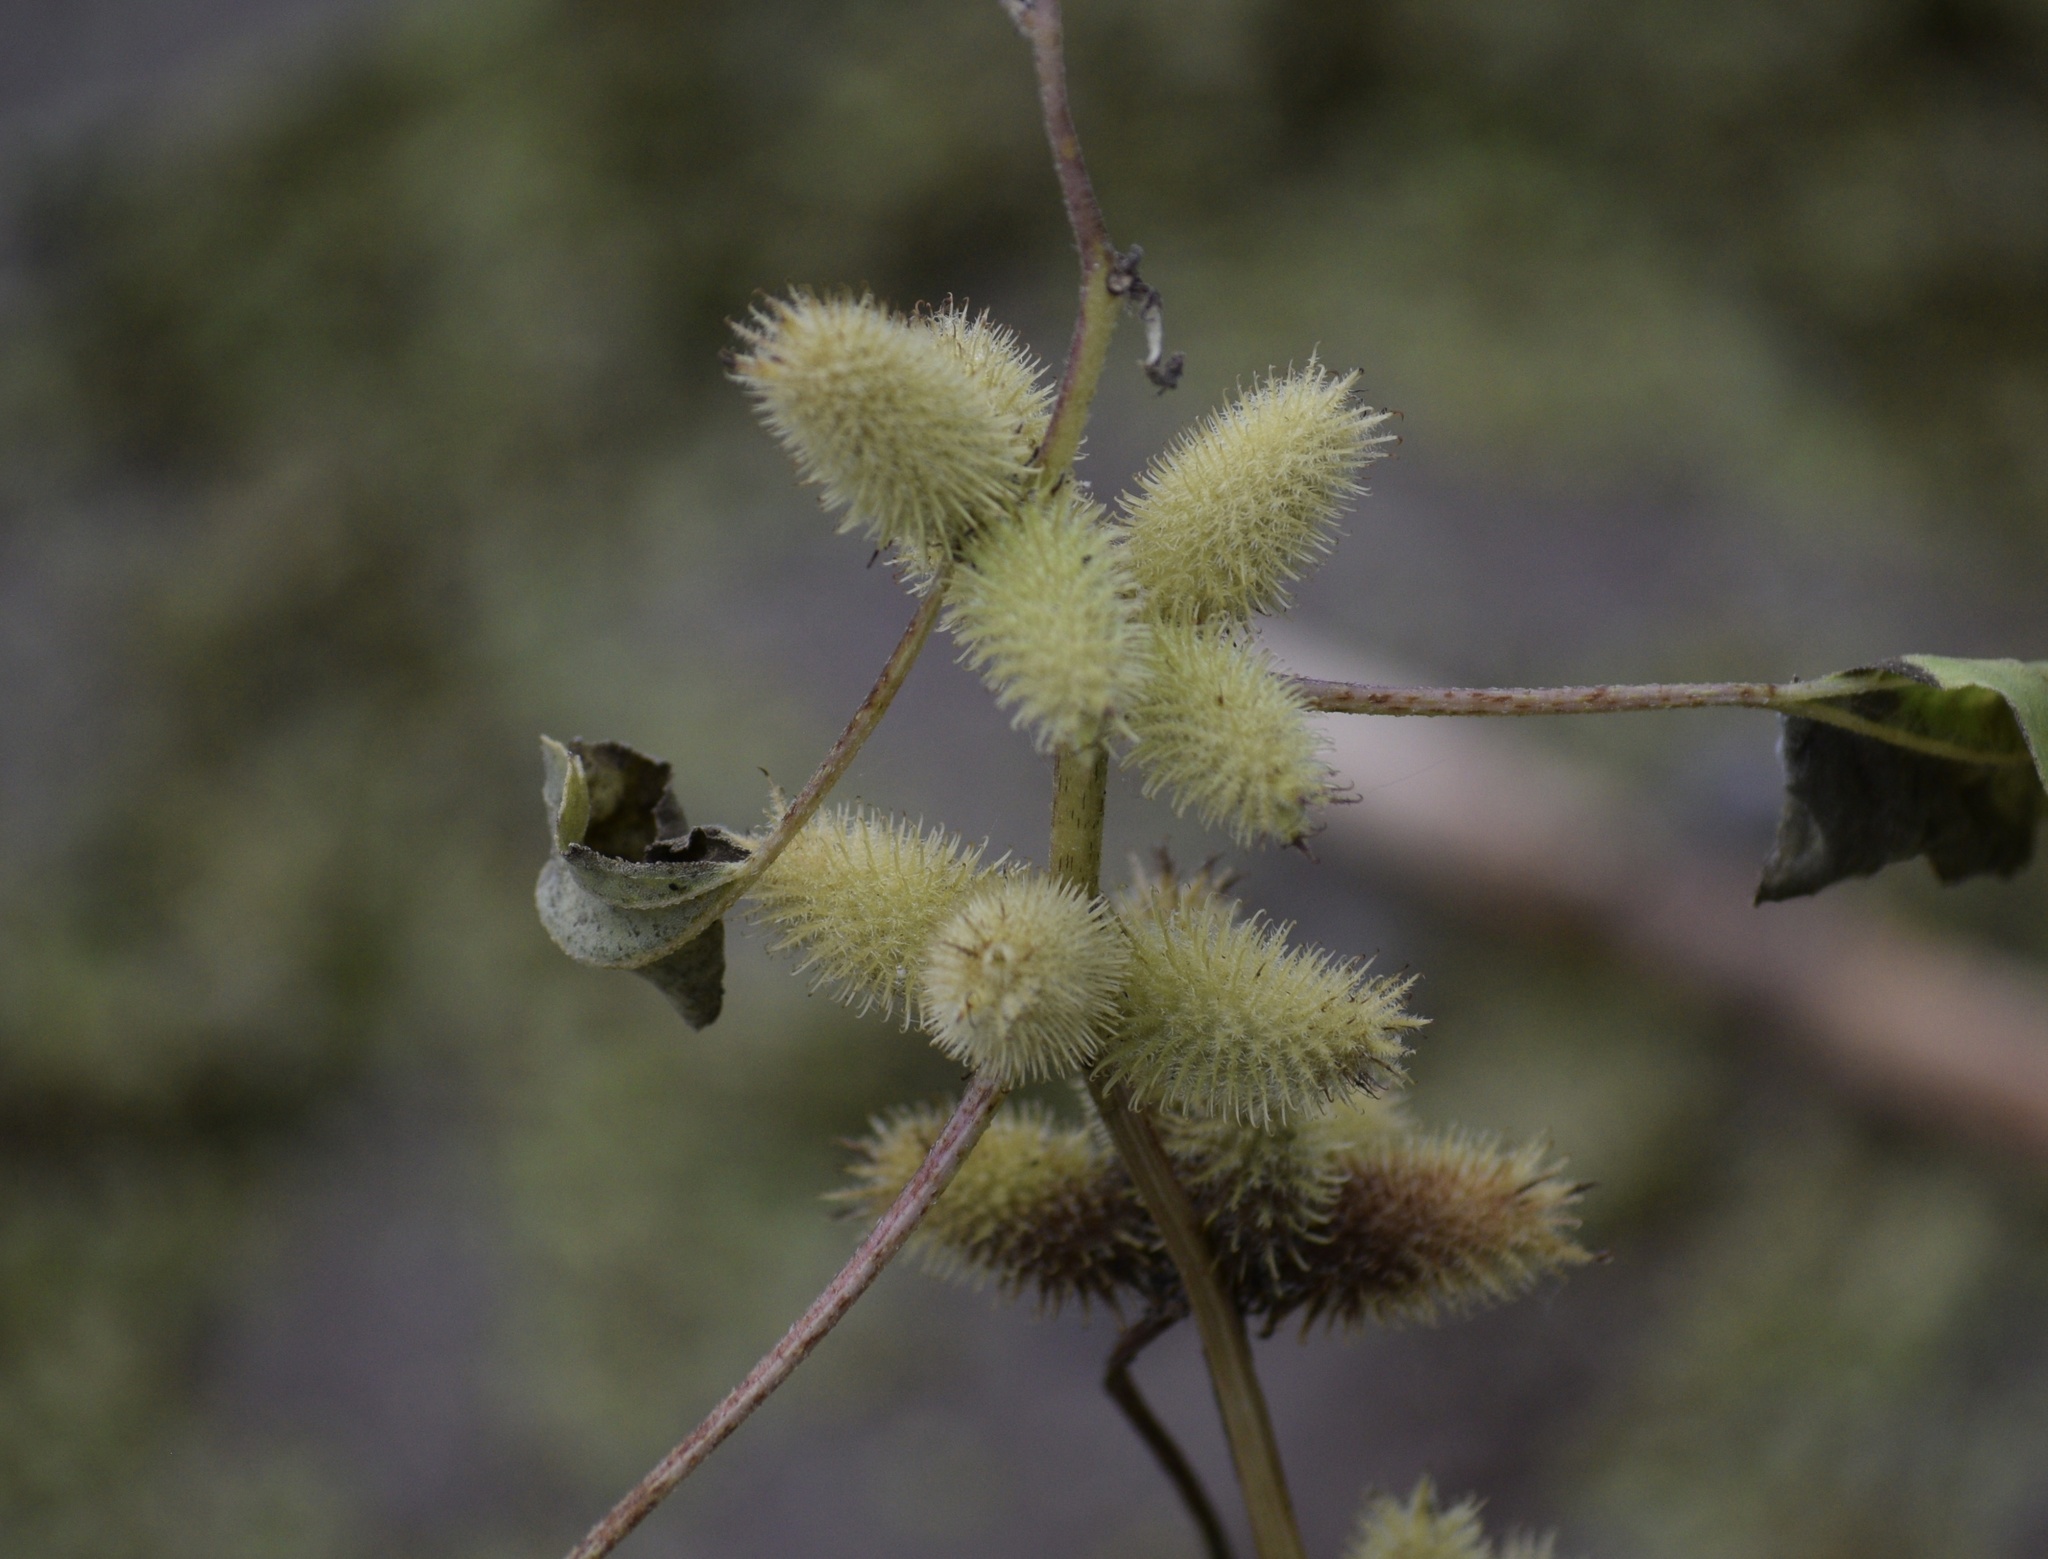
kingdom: Plantae
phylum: Tracheophyta
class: Magnoliopsida
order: Asterales
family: Asteraceae
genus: Xanthium
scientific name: Xanthium strumarium
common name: Rough cocklebur
